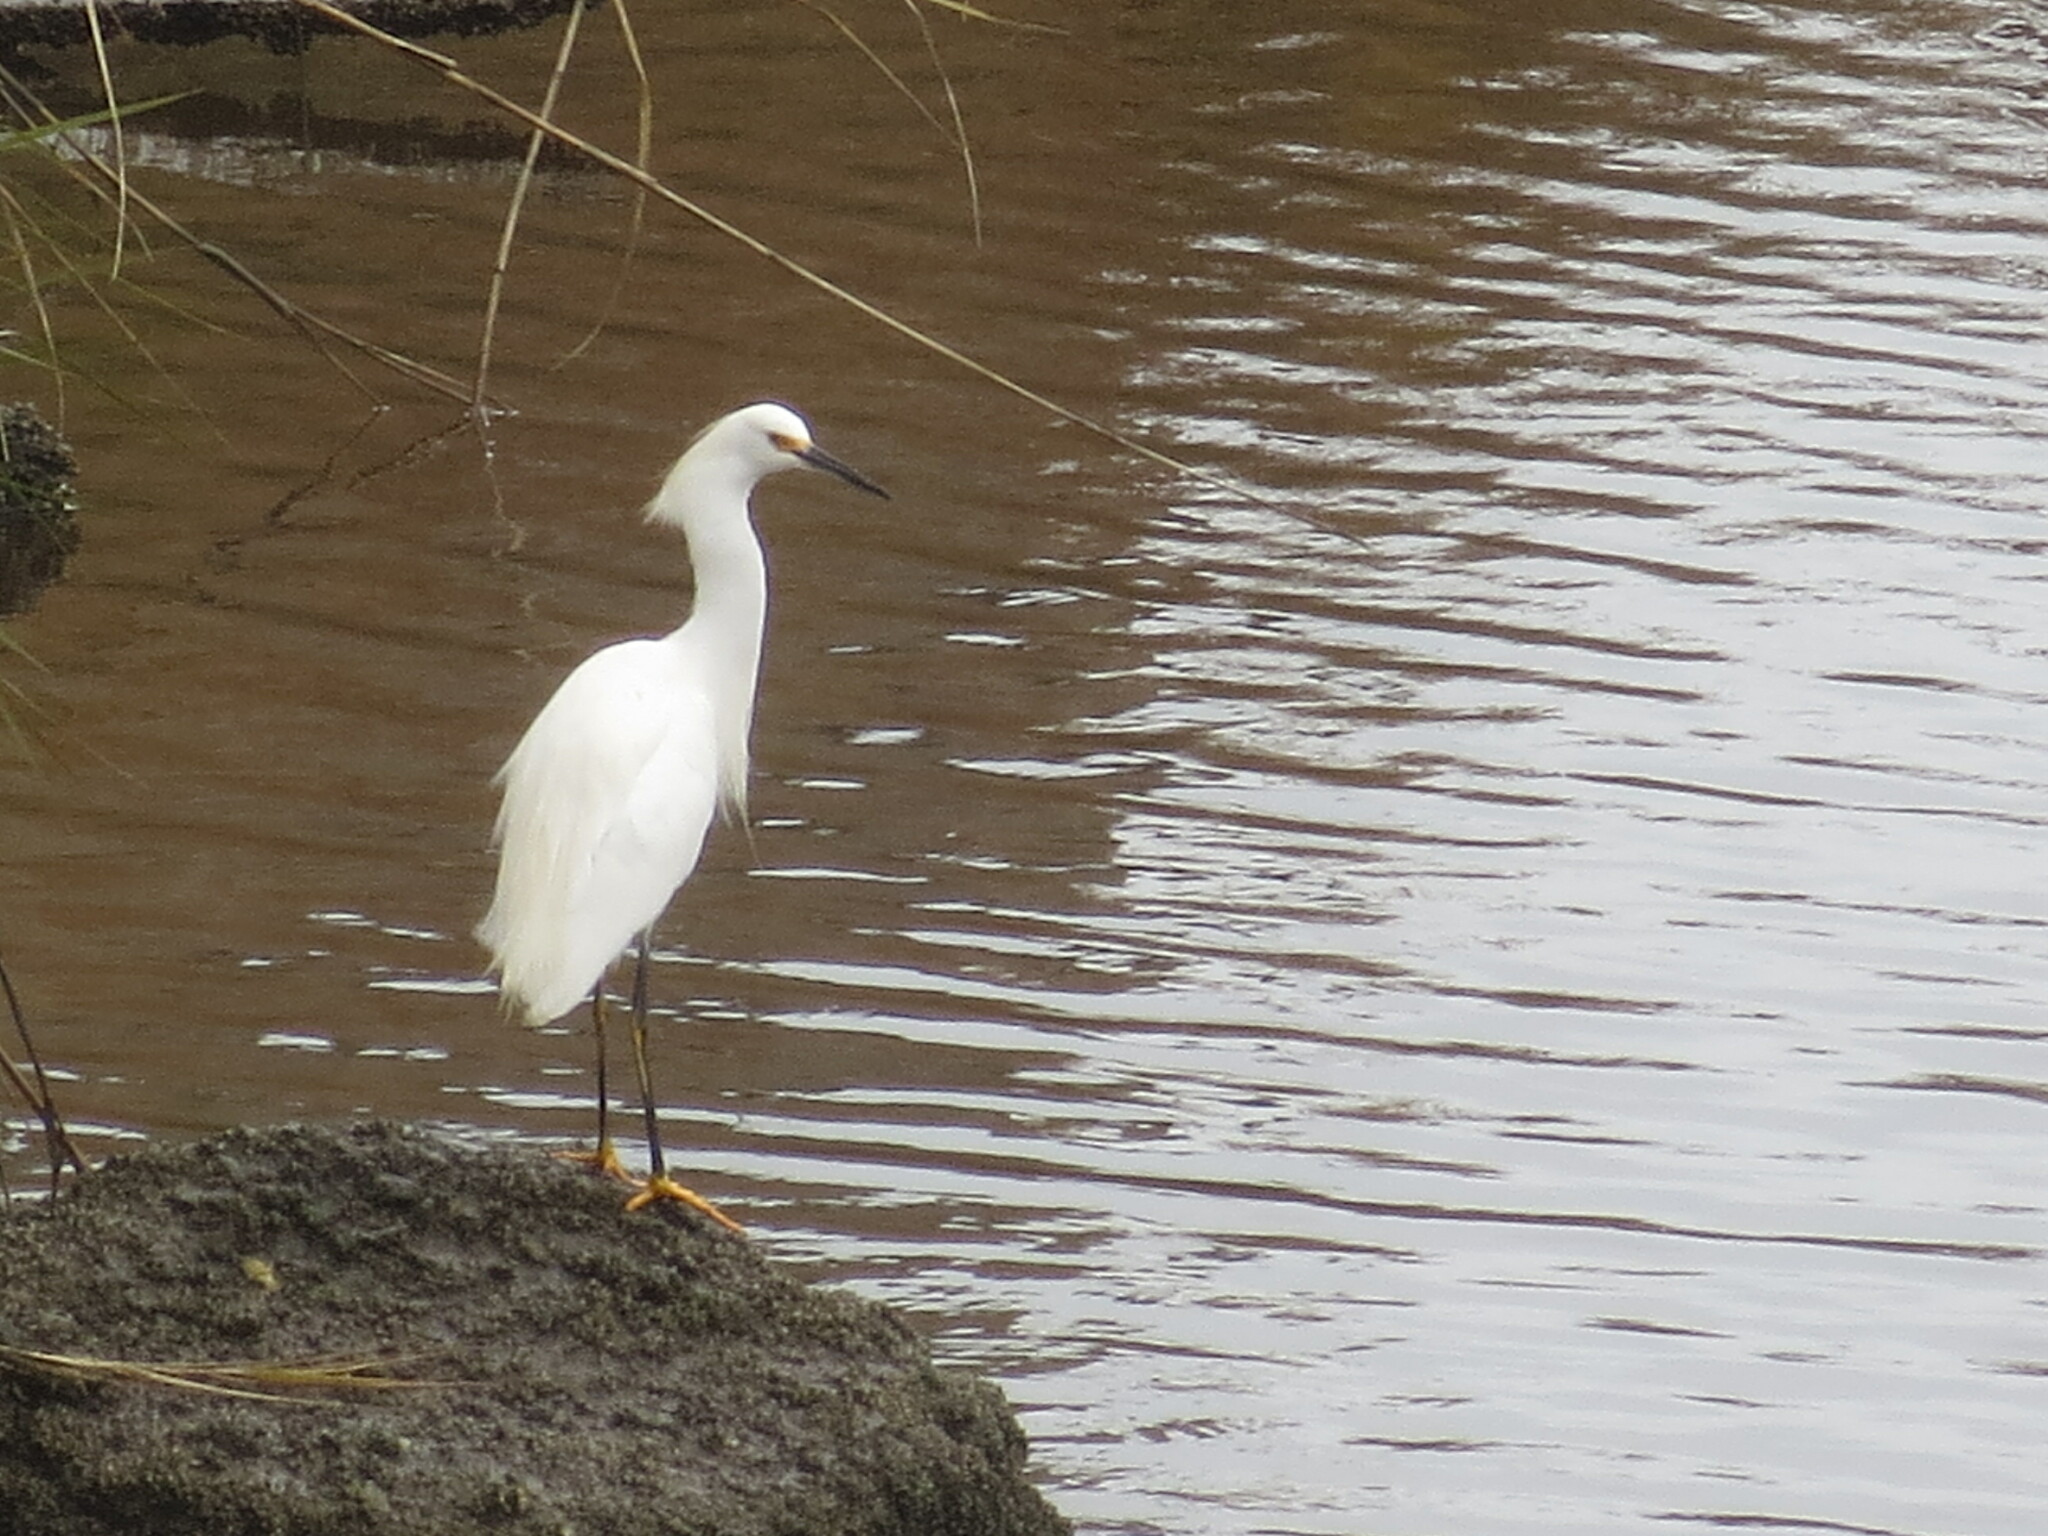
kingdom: Animalia
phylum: Chordata
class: Aves
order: Pelecaniformes
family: Ardeidae
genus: Egretta
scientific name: Egretta thula
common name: Snowy egret
